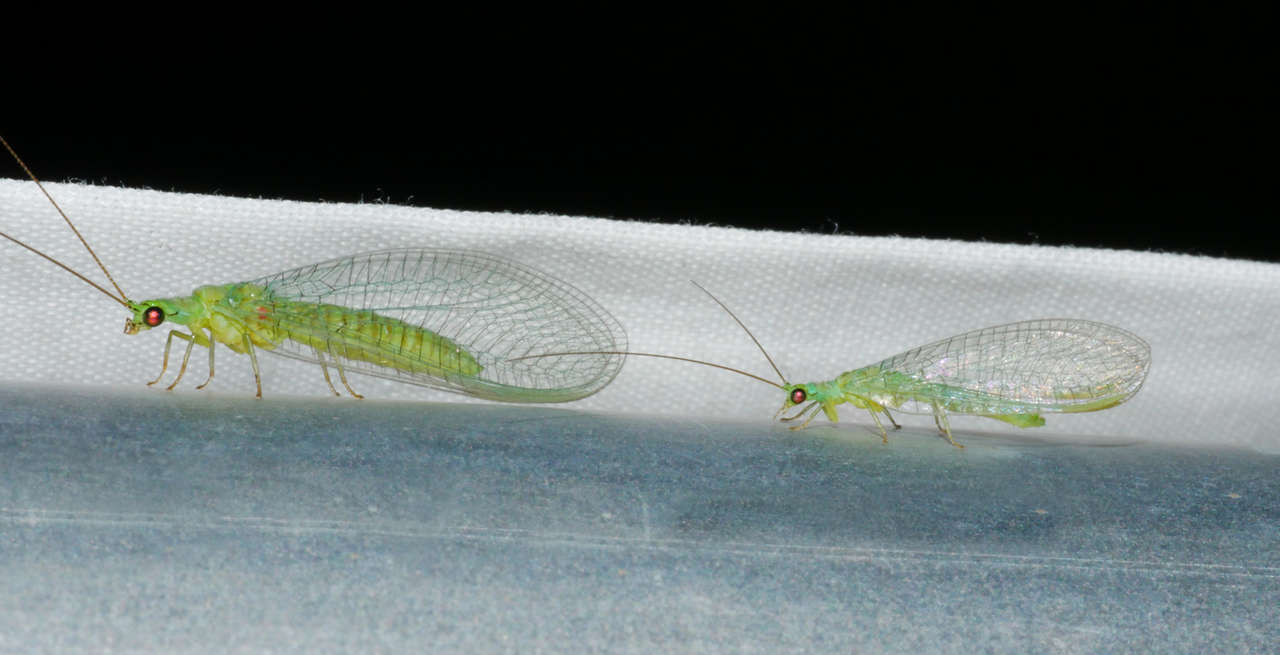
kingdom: Animalia
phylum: Arthropoda
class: Insecta
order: Neuroptera
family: Chrysopidae
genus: Mallada
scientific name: Mallada signatus
